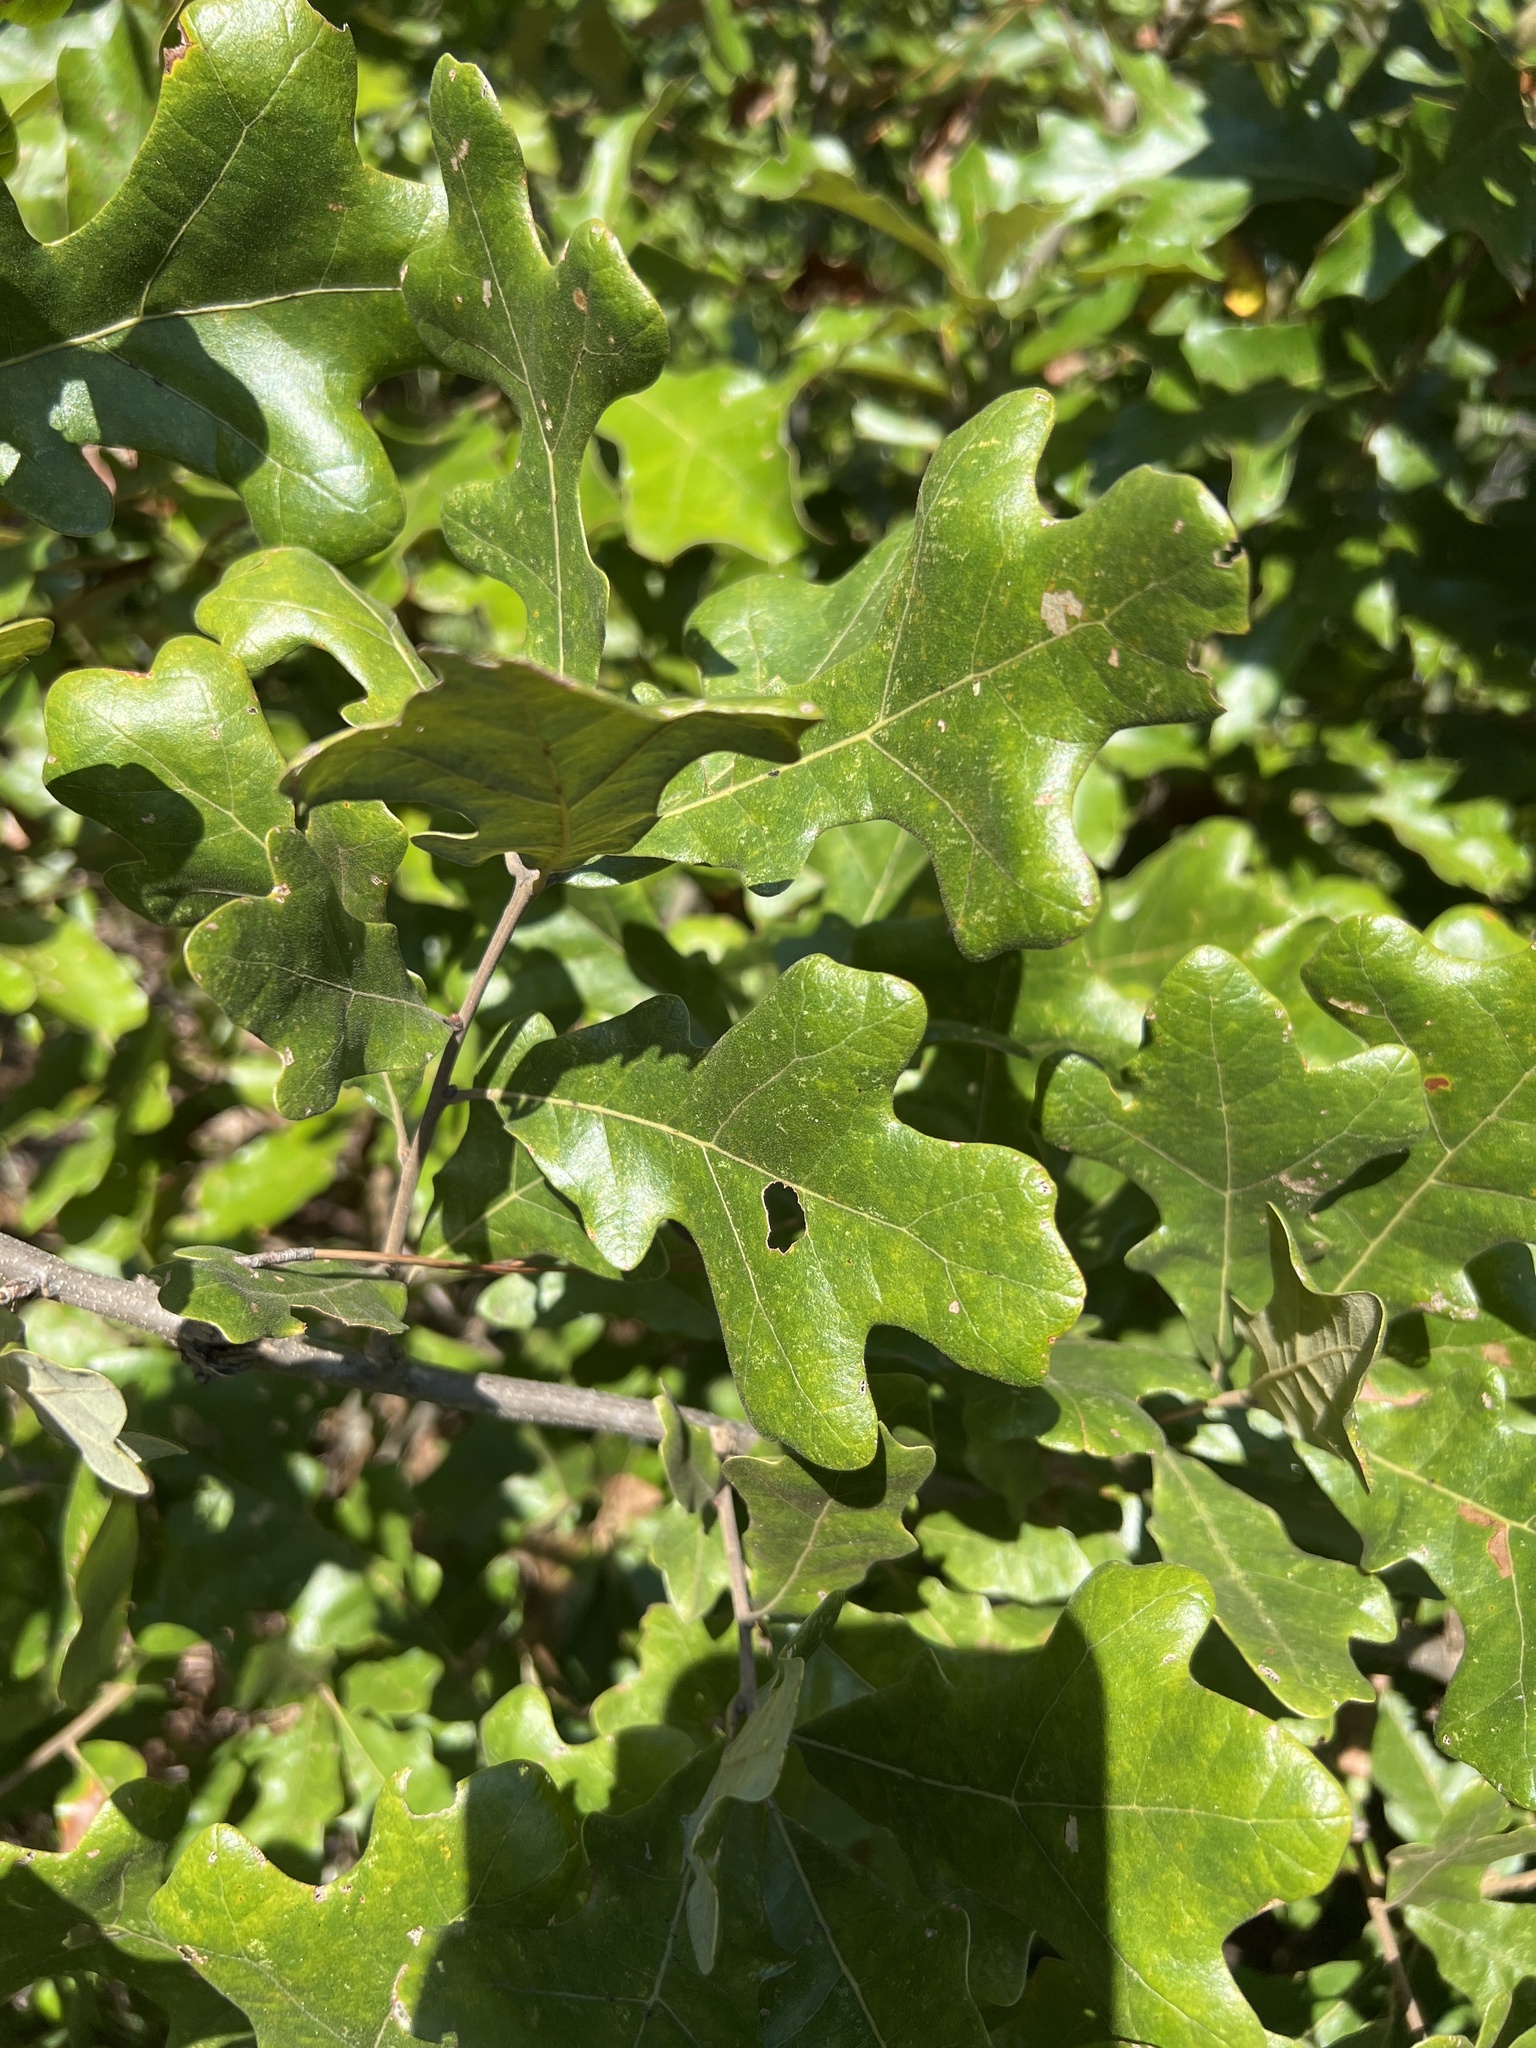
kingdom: Plantae
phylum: Tracheophyta
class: Magnoliopsida
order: Fagales
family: Fagaceae
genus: Quercus
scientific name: Quercus stellata
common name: Post oak
